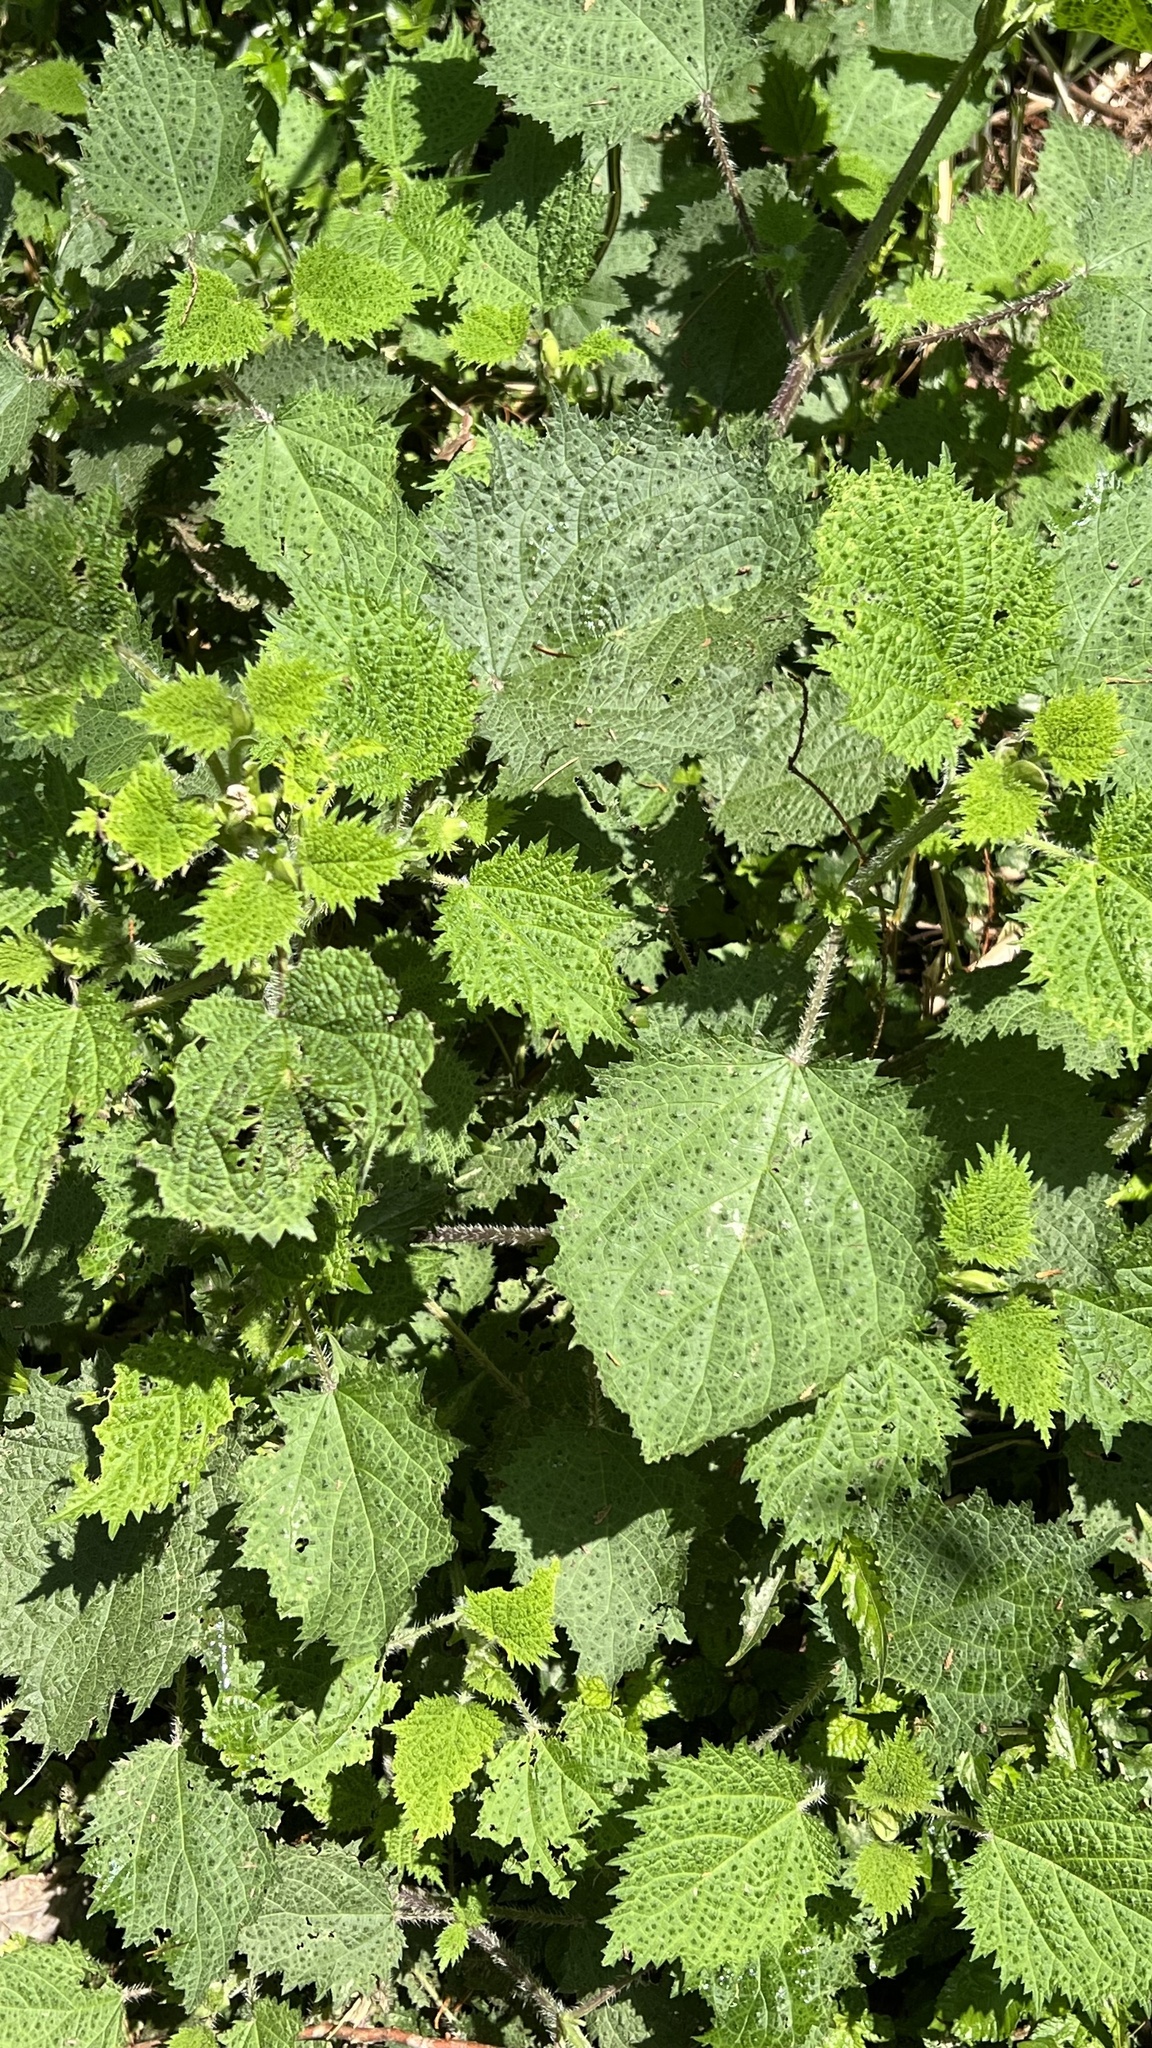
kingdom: Plantae
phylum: Tracheophyta
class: Magnoliopsida
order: Rosales
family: Urticaceae
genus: Urtica
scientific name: Urtica thunbergiana
